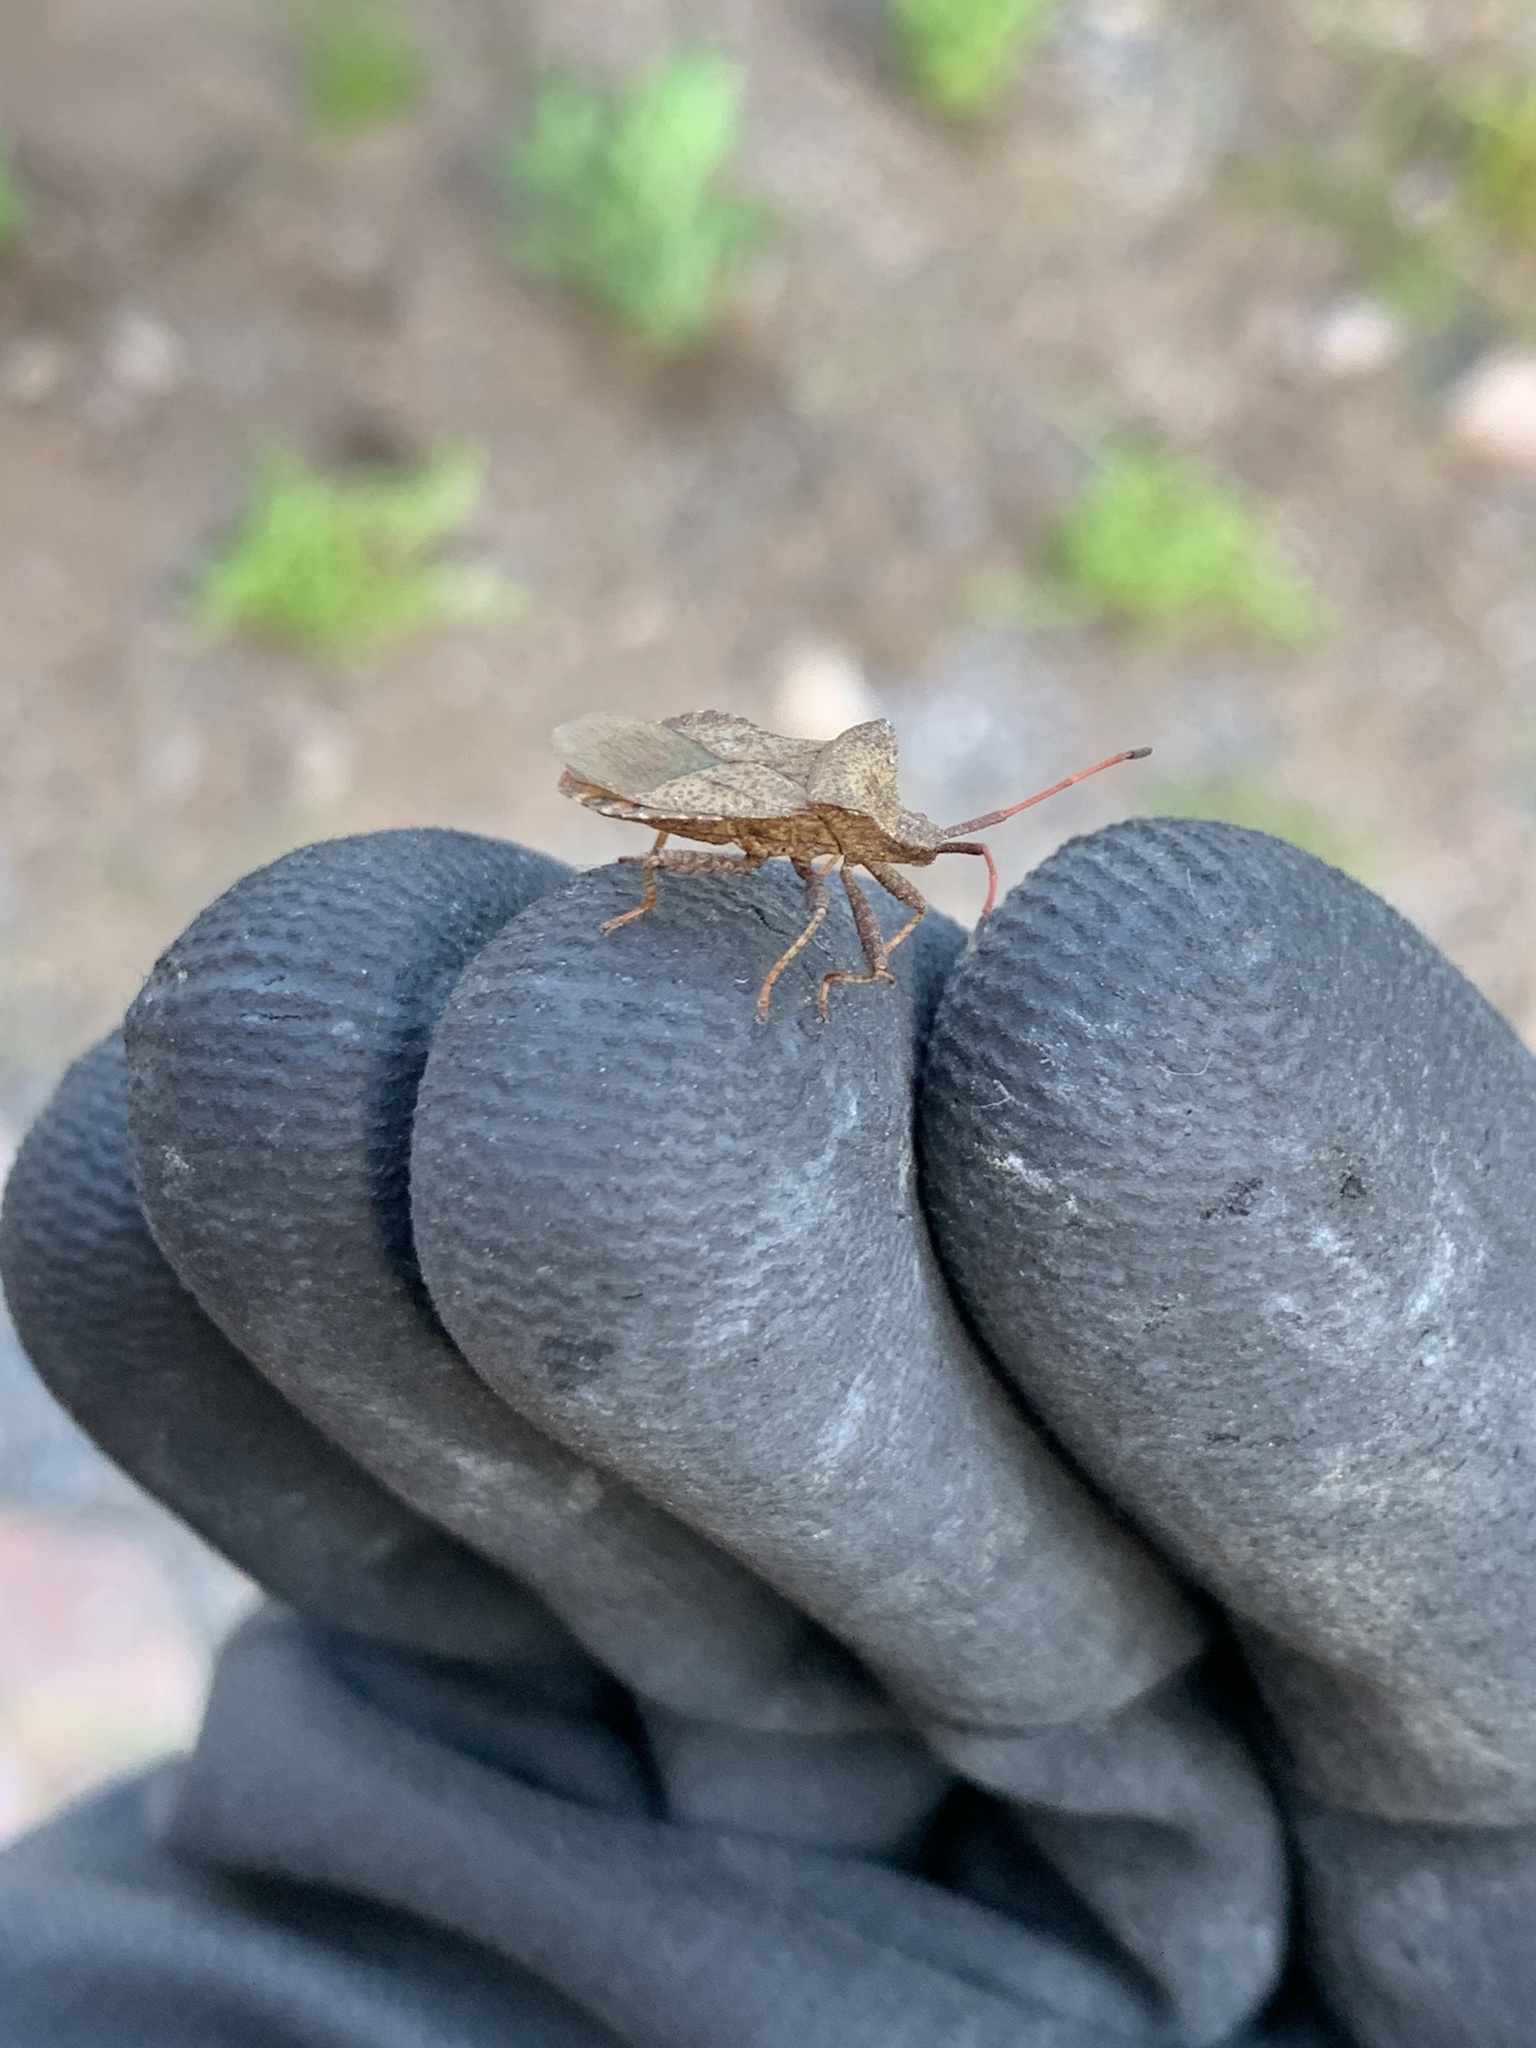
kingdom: Animalia
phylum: Arthropoda
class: Insecta
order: Hemiptera
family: Coreidae
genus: Coreus
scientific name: Coreus marginatus
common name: Dock bug
